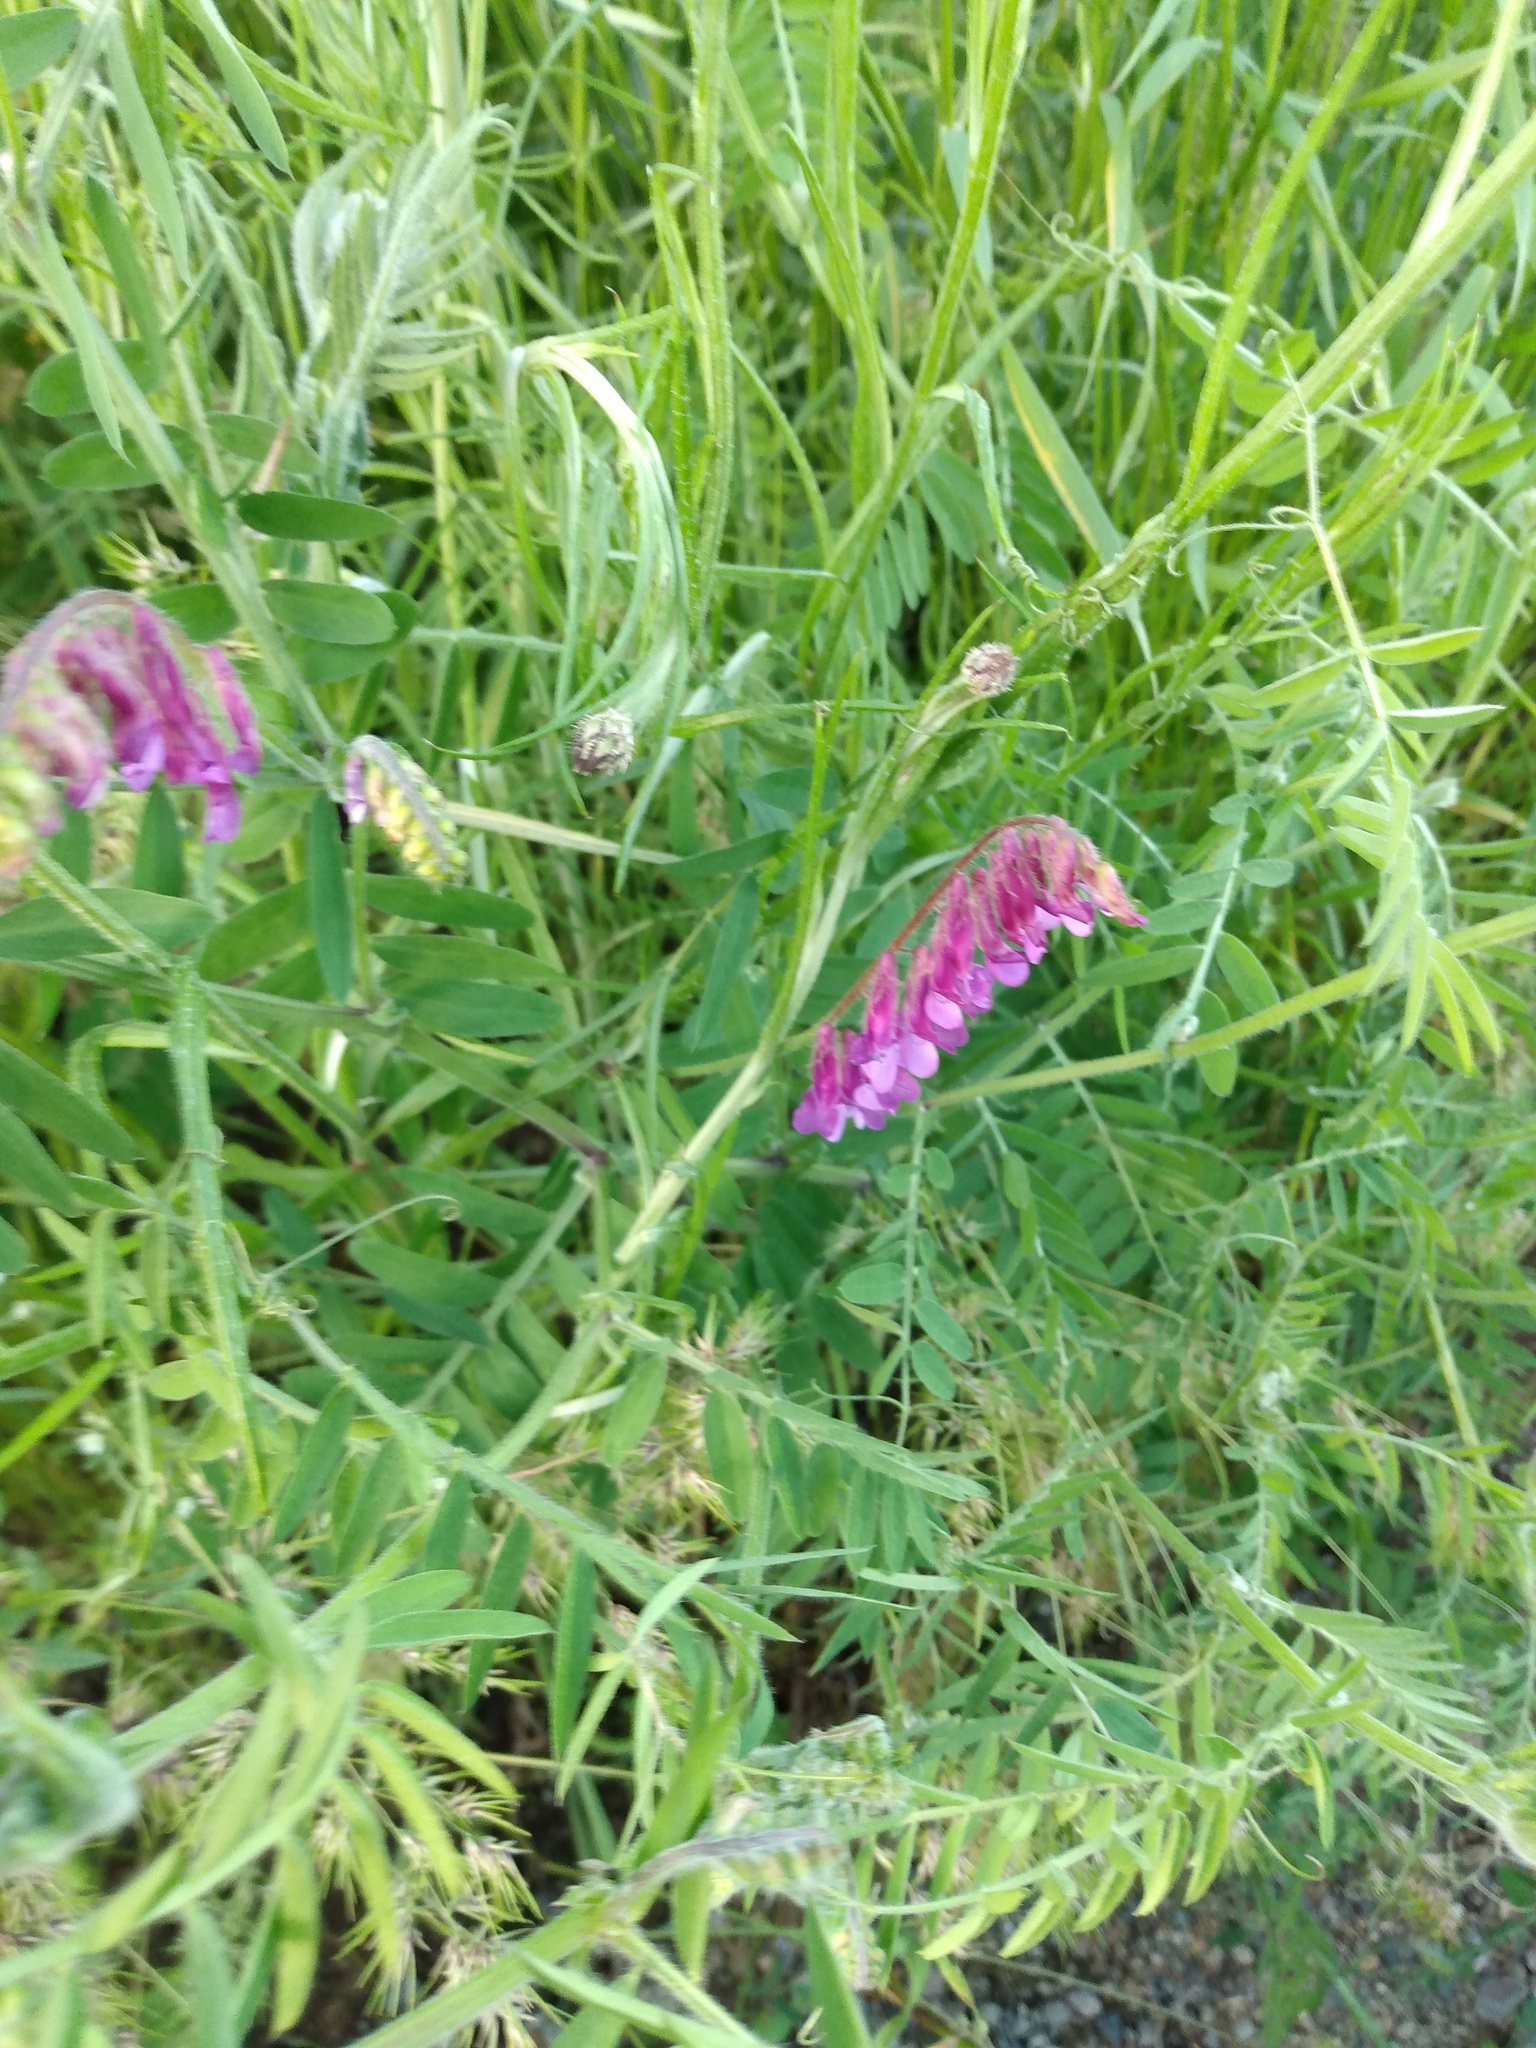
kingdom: Plantae
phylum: Tracheophyta
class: Magnoliopsida
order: Fabales
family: Fabaceae
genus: Vicia
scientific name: Vicia villosa
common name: Fodder vetch
